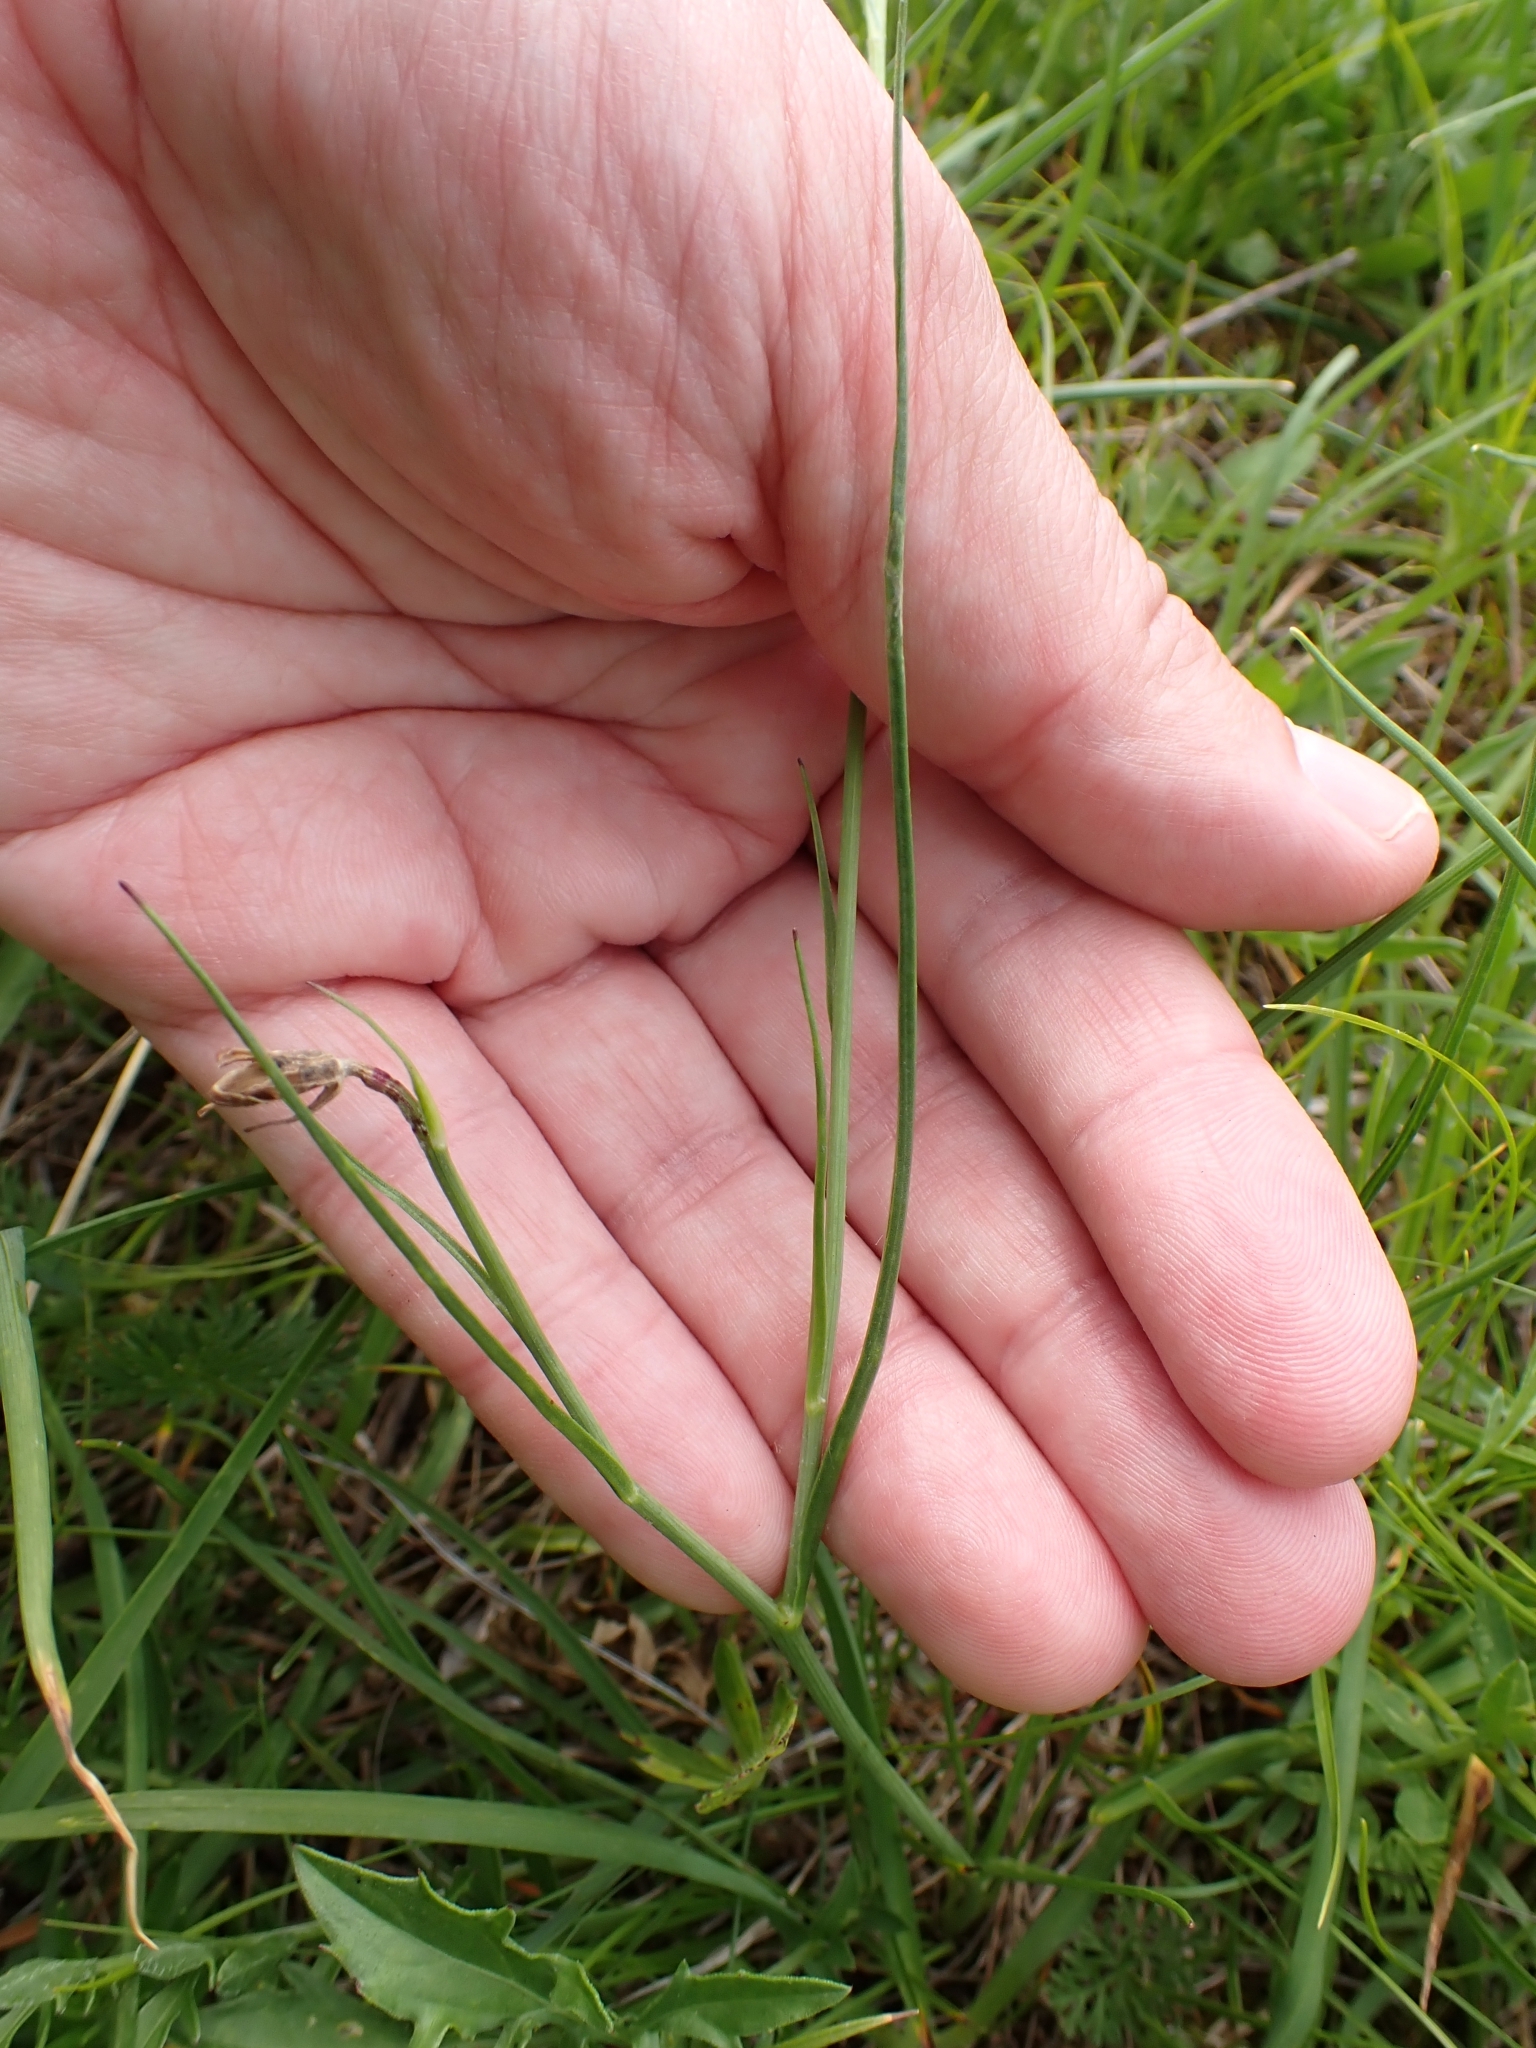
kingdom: Plantae
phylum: Tracheophyta
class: Magnoliopsida
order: Asterales
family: Asteraceae
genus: Scorzonera
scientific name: Scorzonera purpurea
